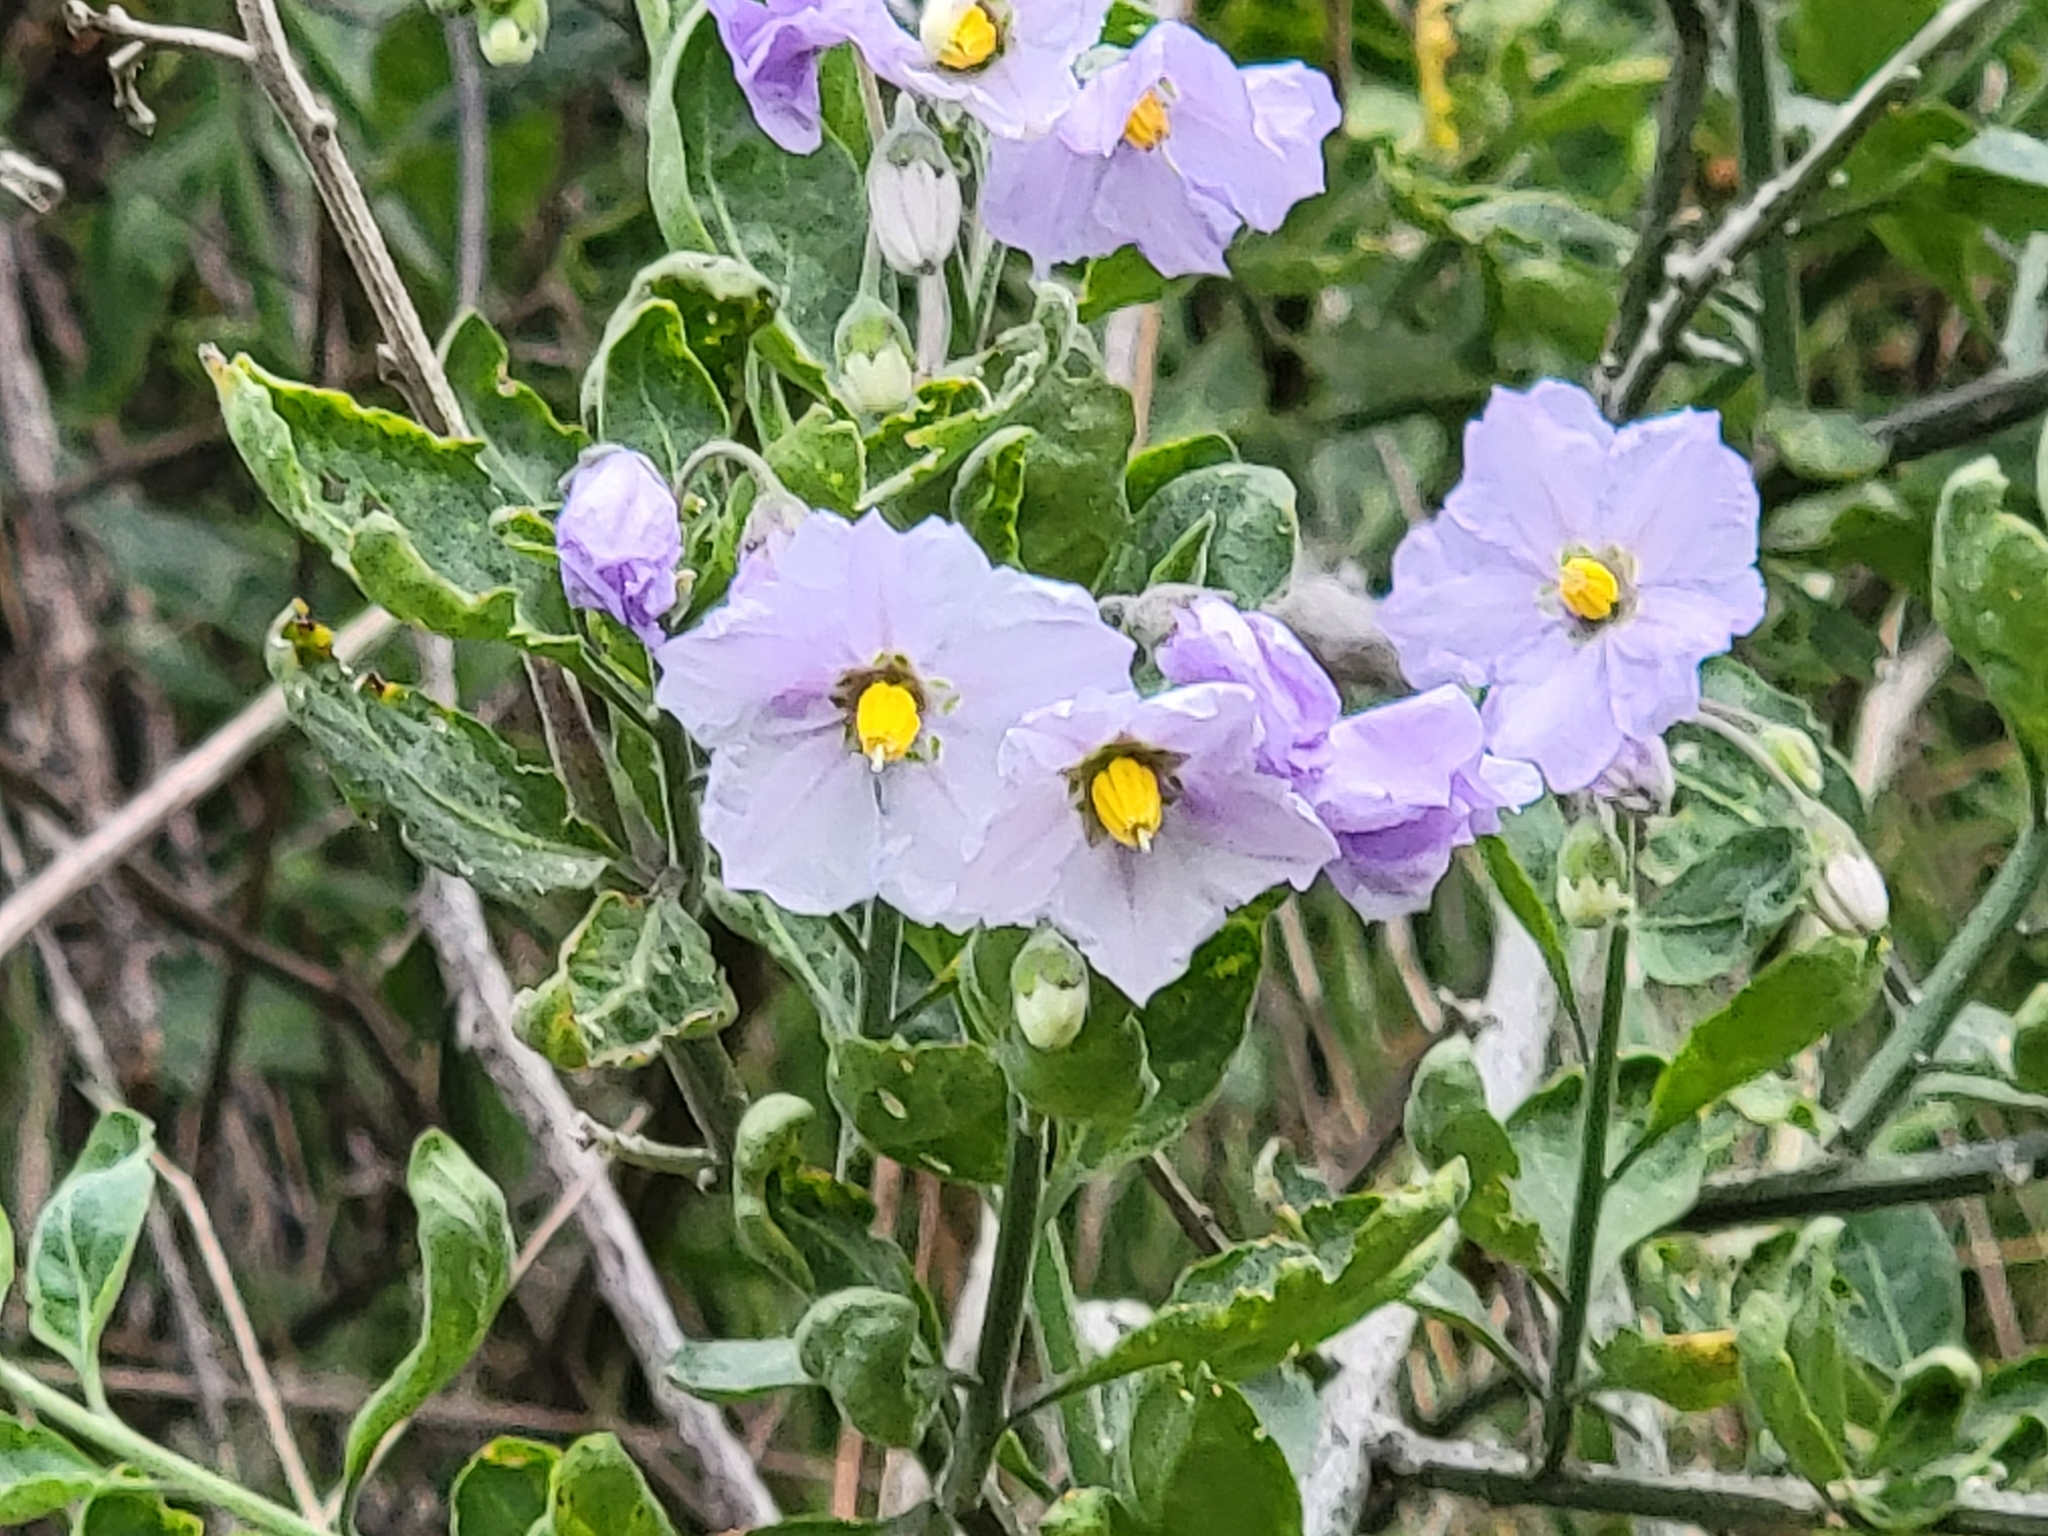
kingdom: Plantae
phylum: Tracheophyta
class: Magnoliopsida
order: Solanales
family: Solanaceae
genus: Solanum
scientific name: Solanum umbelliferum
